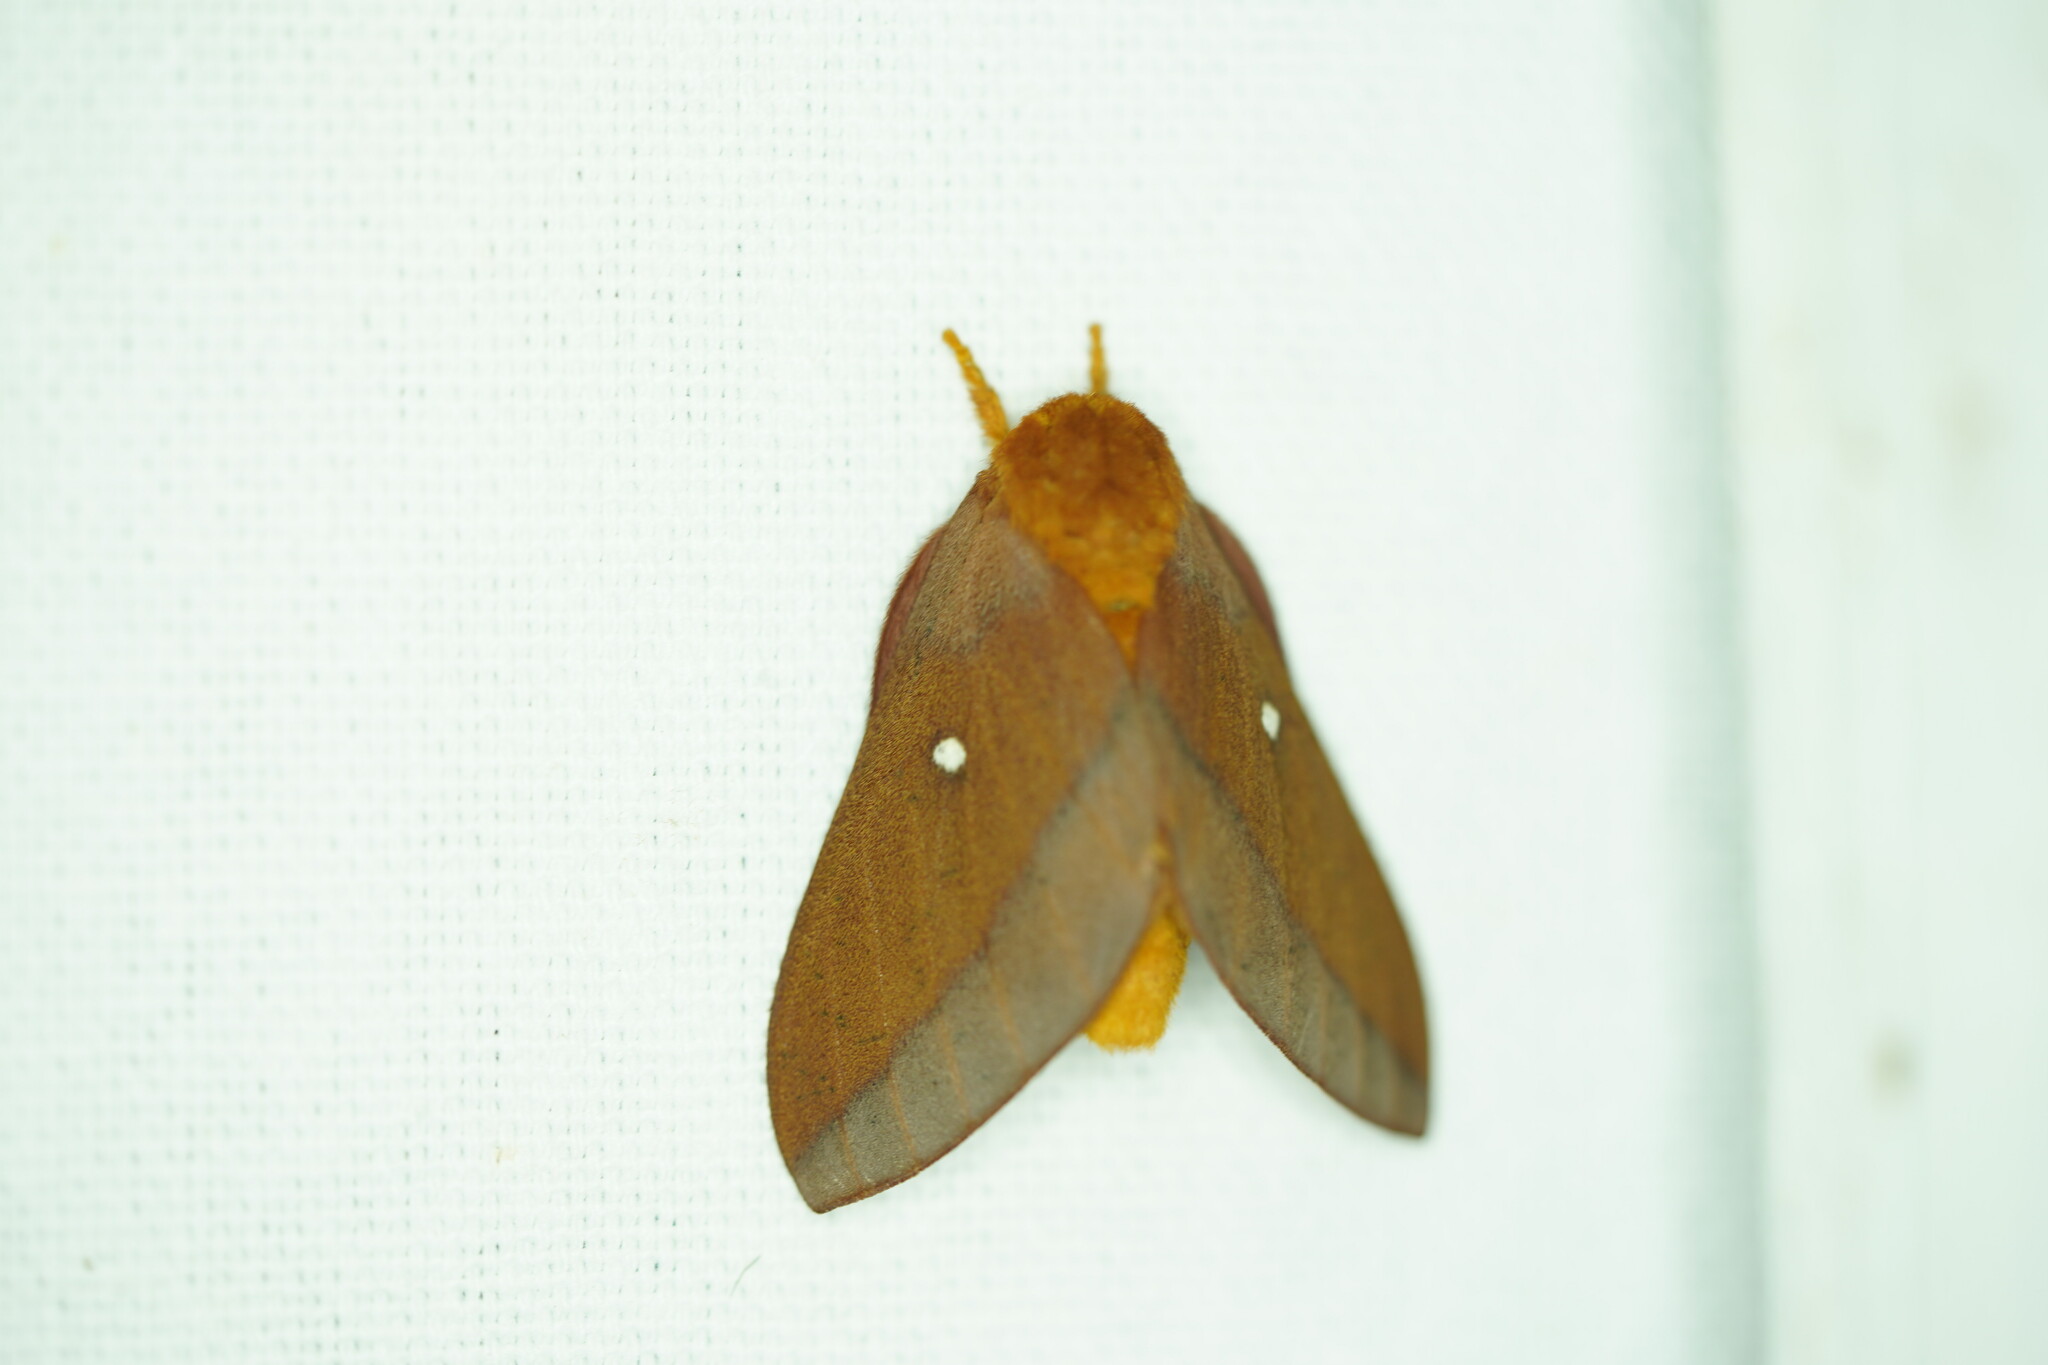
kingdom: Animalia
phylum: Arthropoda
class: Insecta
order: Lepidoptera
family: Saturniidae
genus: Anisota
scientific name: Anisota virginiensis
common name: Pink striped oakworm moth
